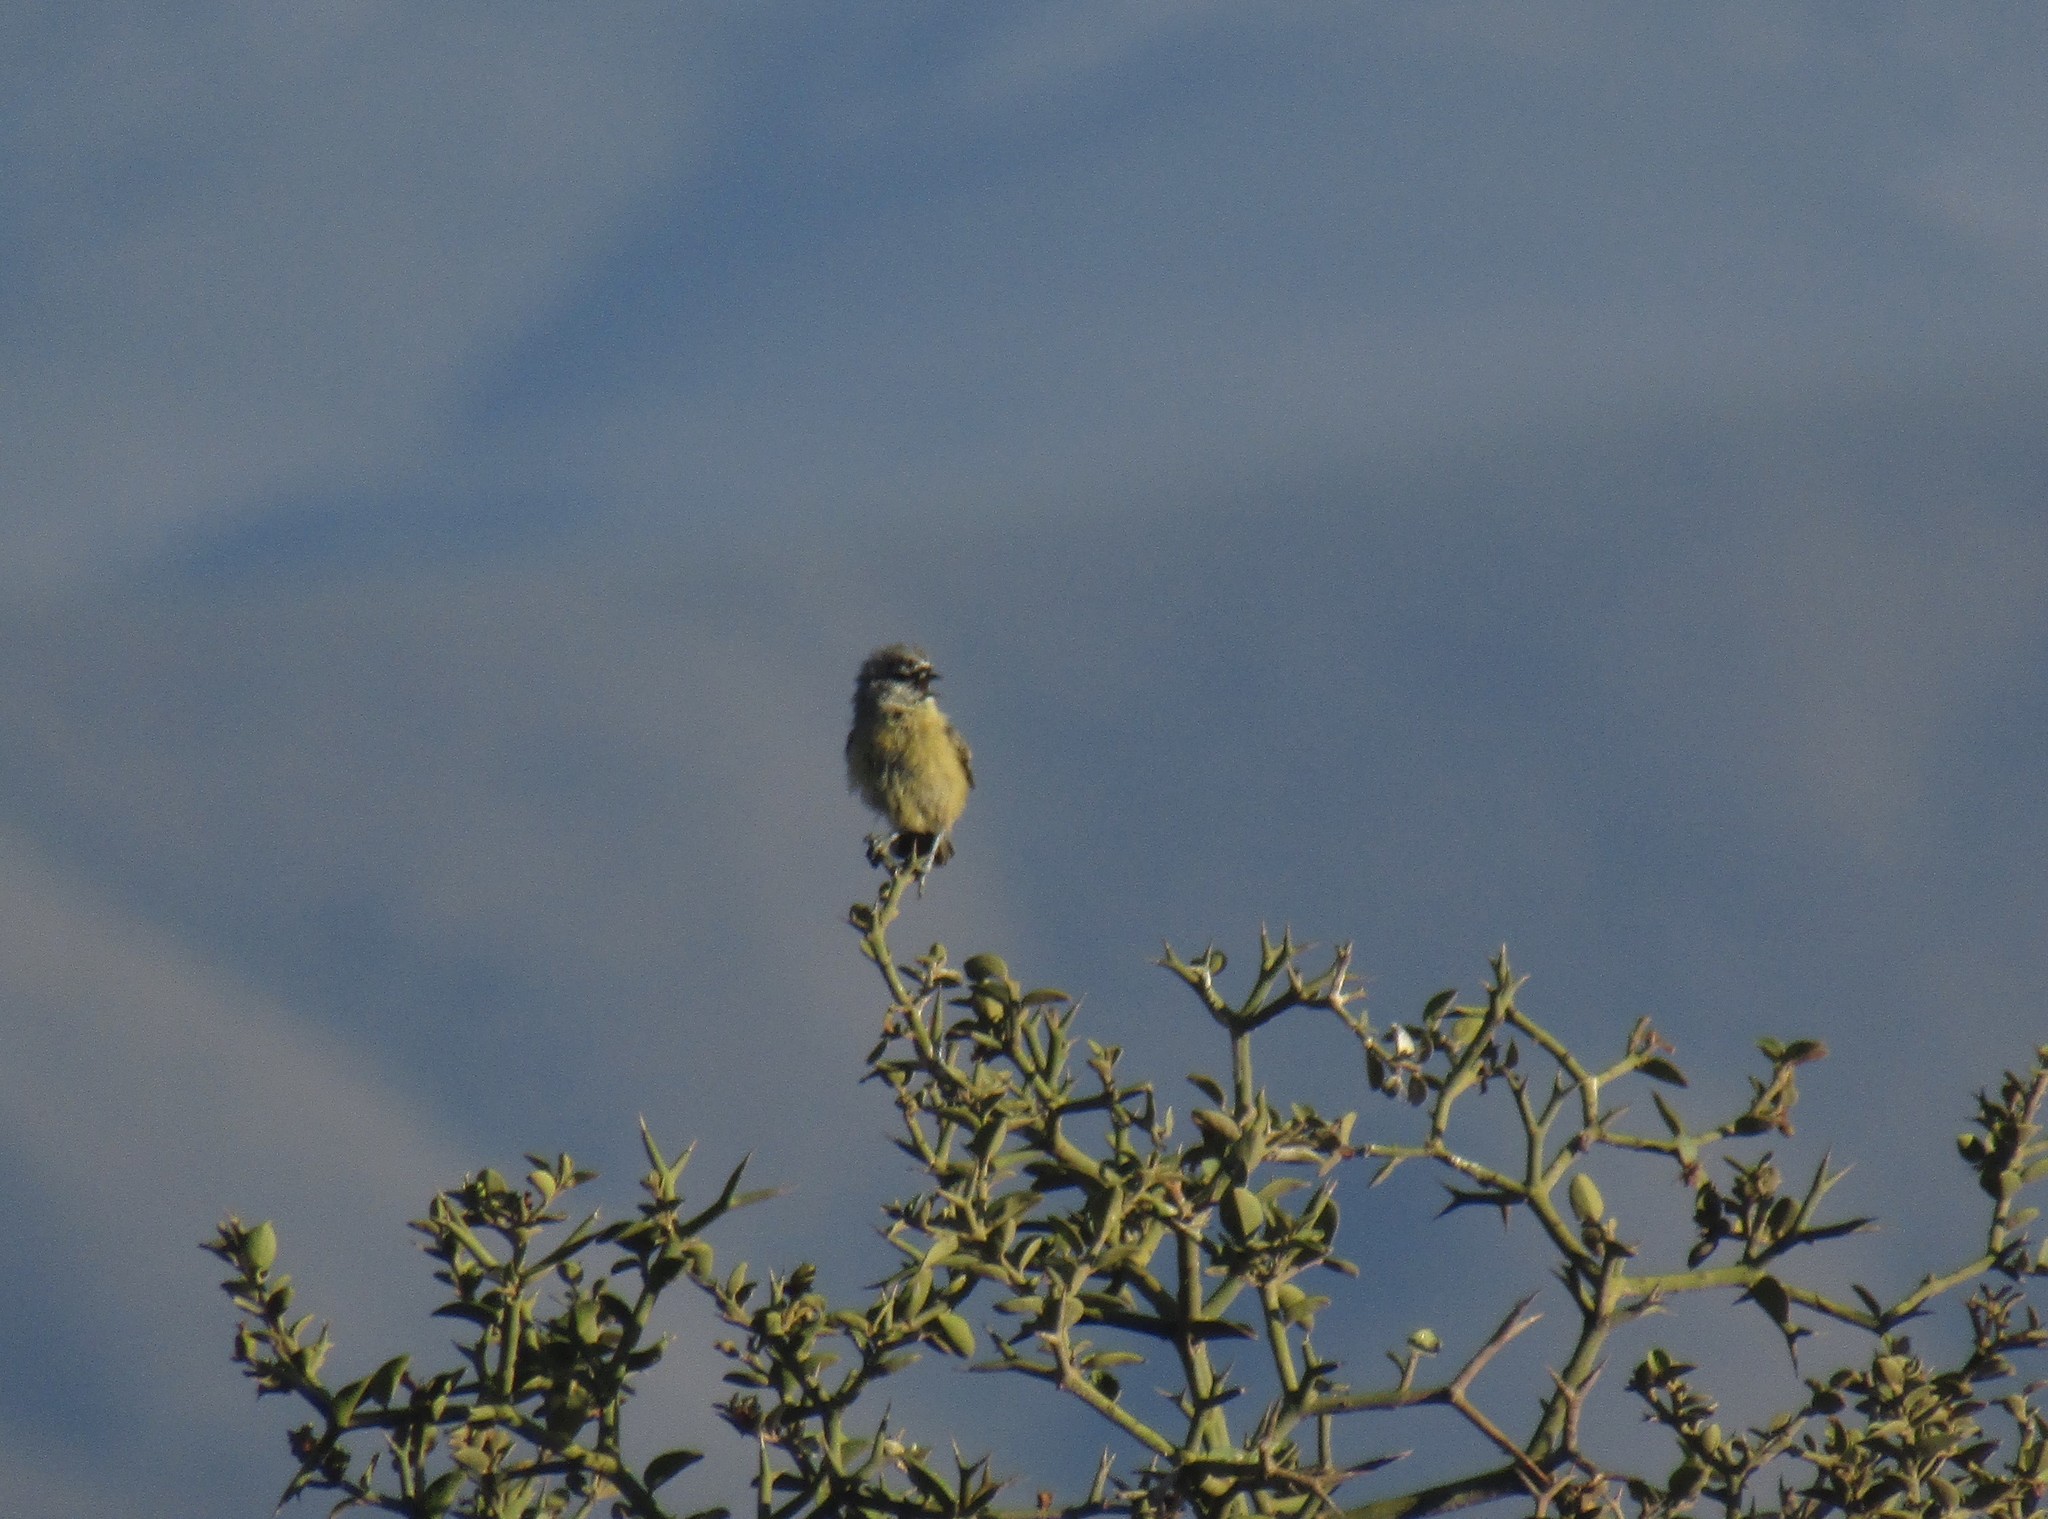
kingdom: Animalia
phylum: Chordata
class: Aves
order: Passeriformes
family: Remizidae
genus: Anthoscopus
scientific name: Anthoscopus minutus
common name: Cape penduline tit
